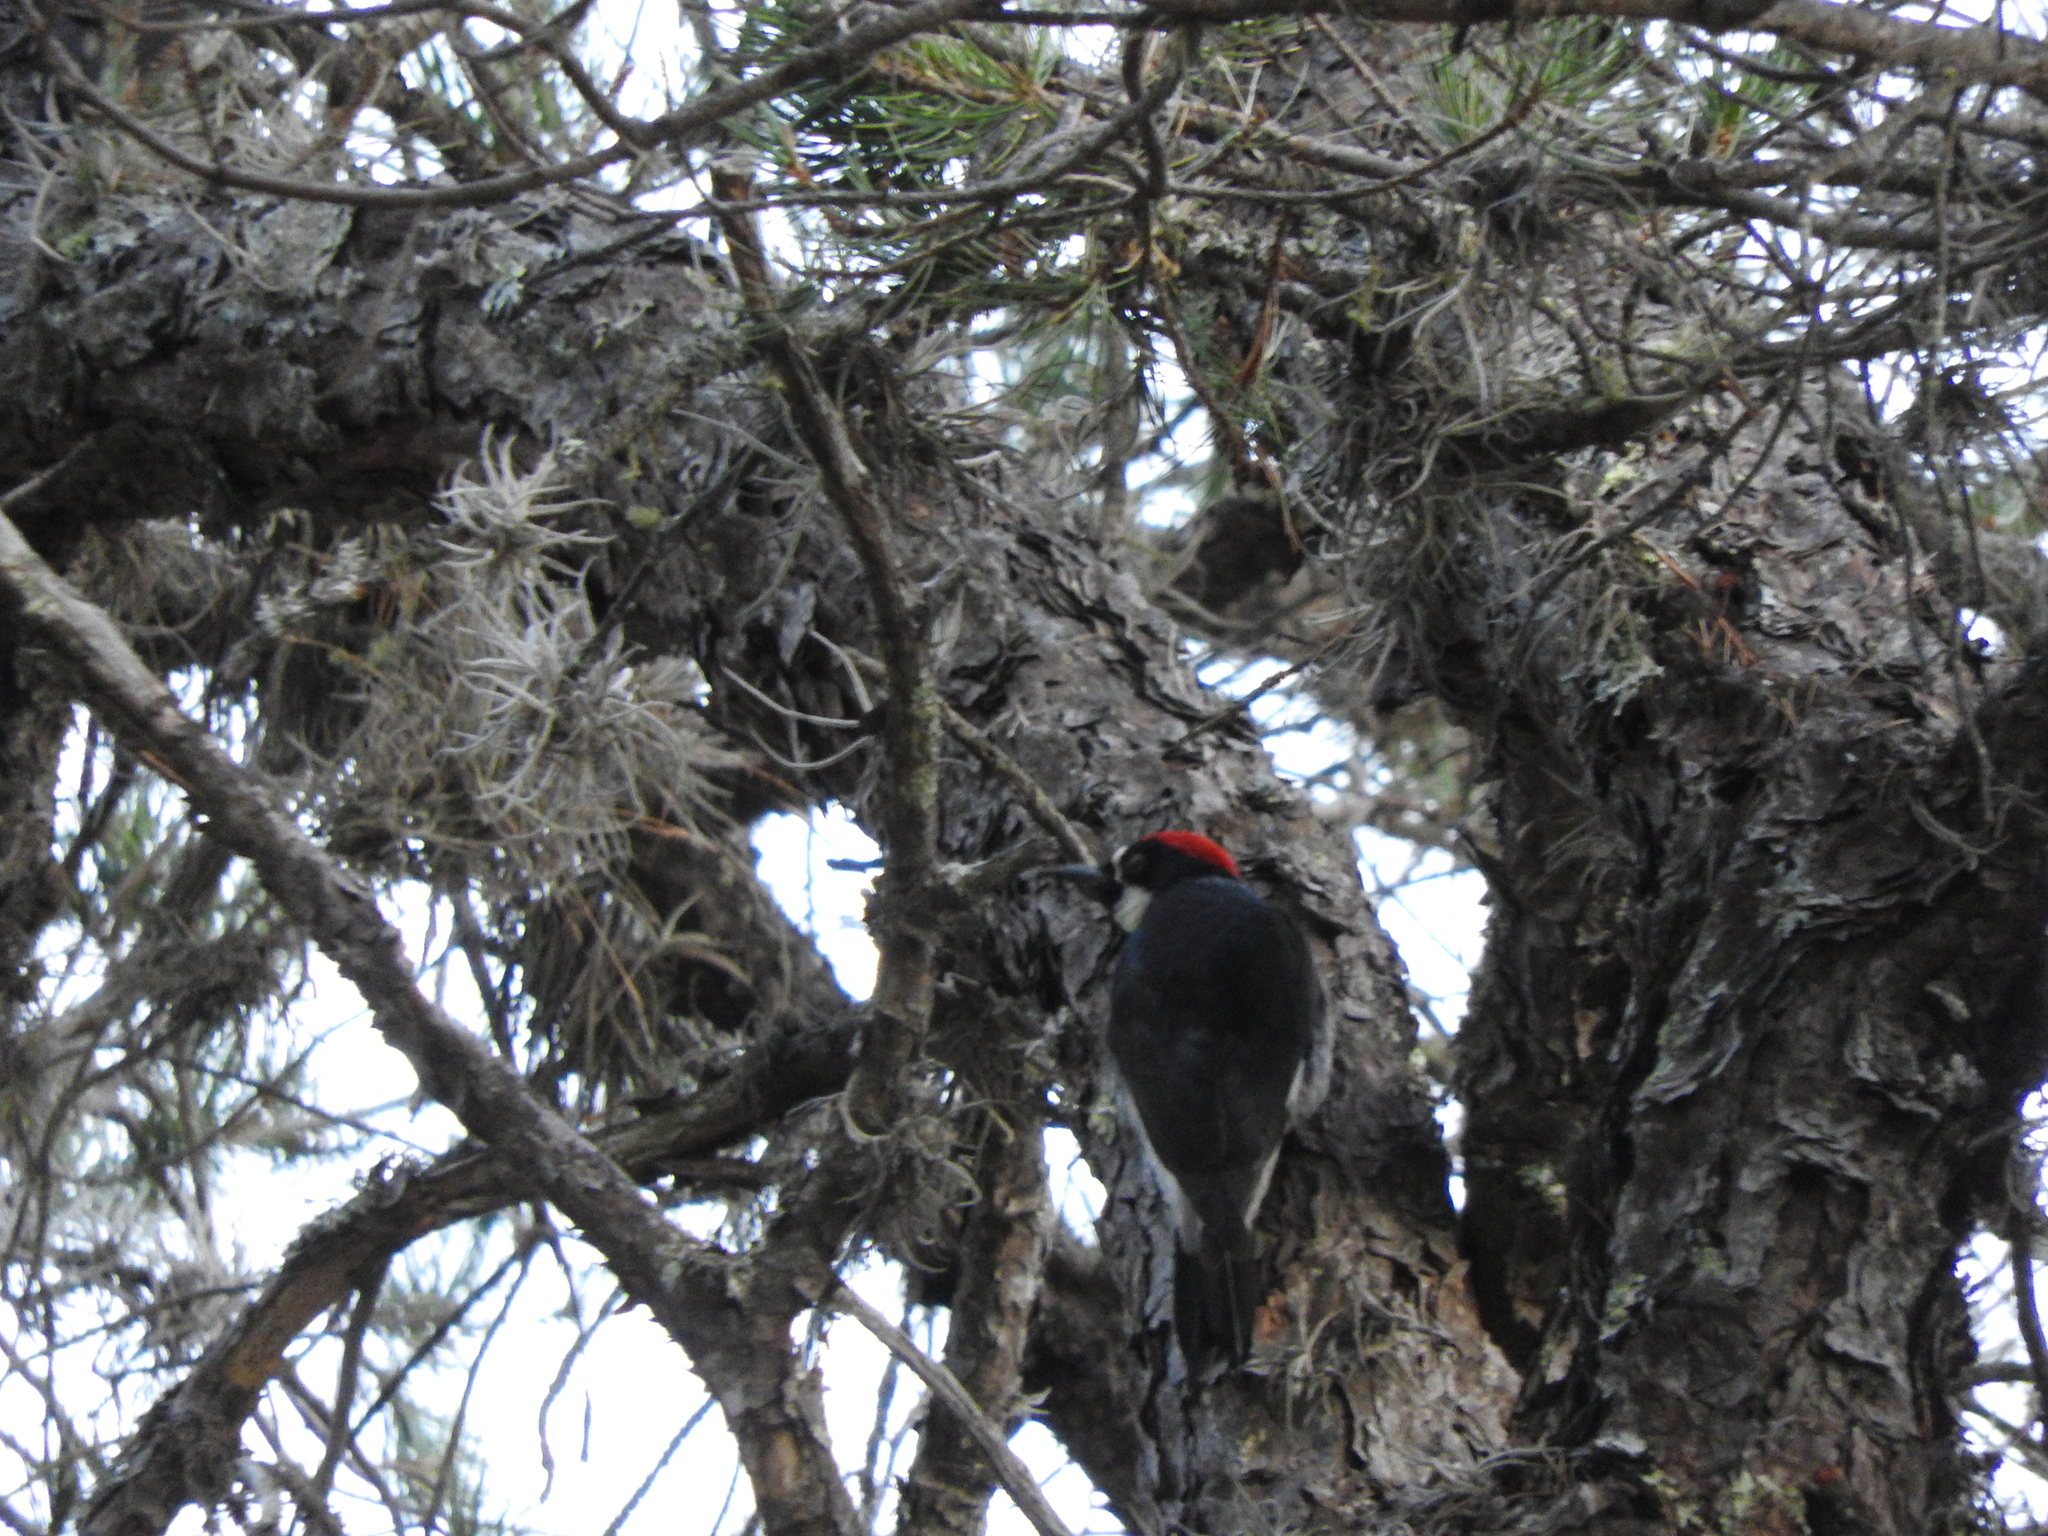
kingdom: Animalia
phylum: Chordata
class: Aves
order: Piciformes
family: Picidae
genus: Melanerpes
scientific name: Melanerpes formicivorus
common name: Acorn woodpecker
